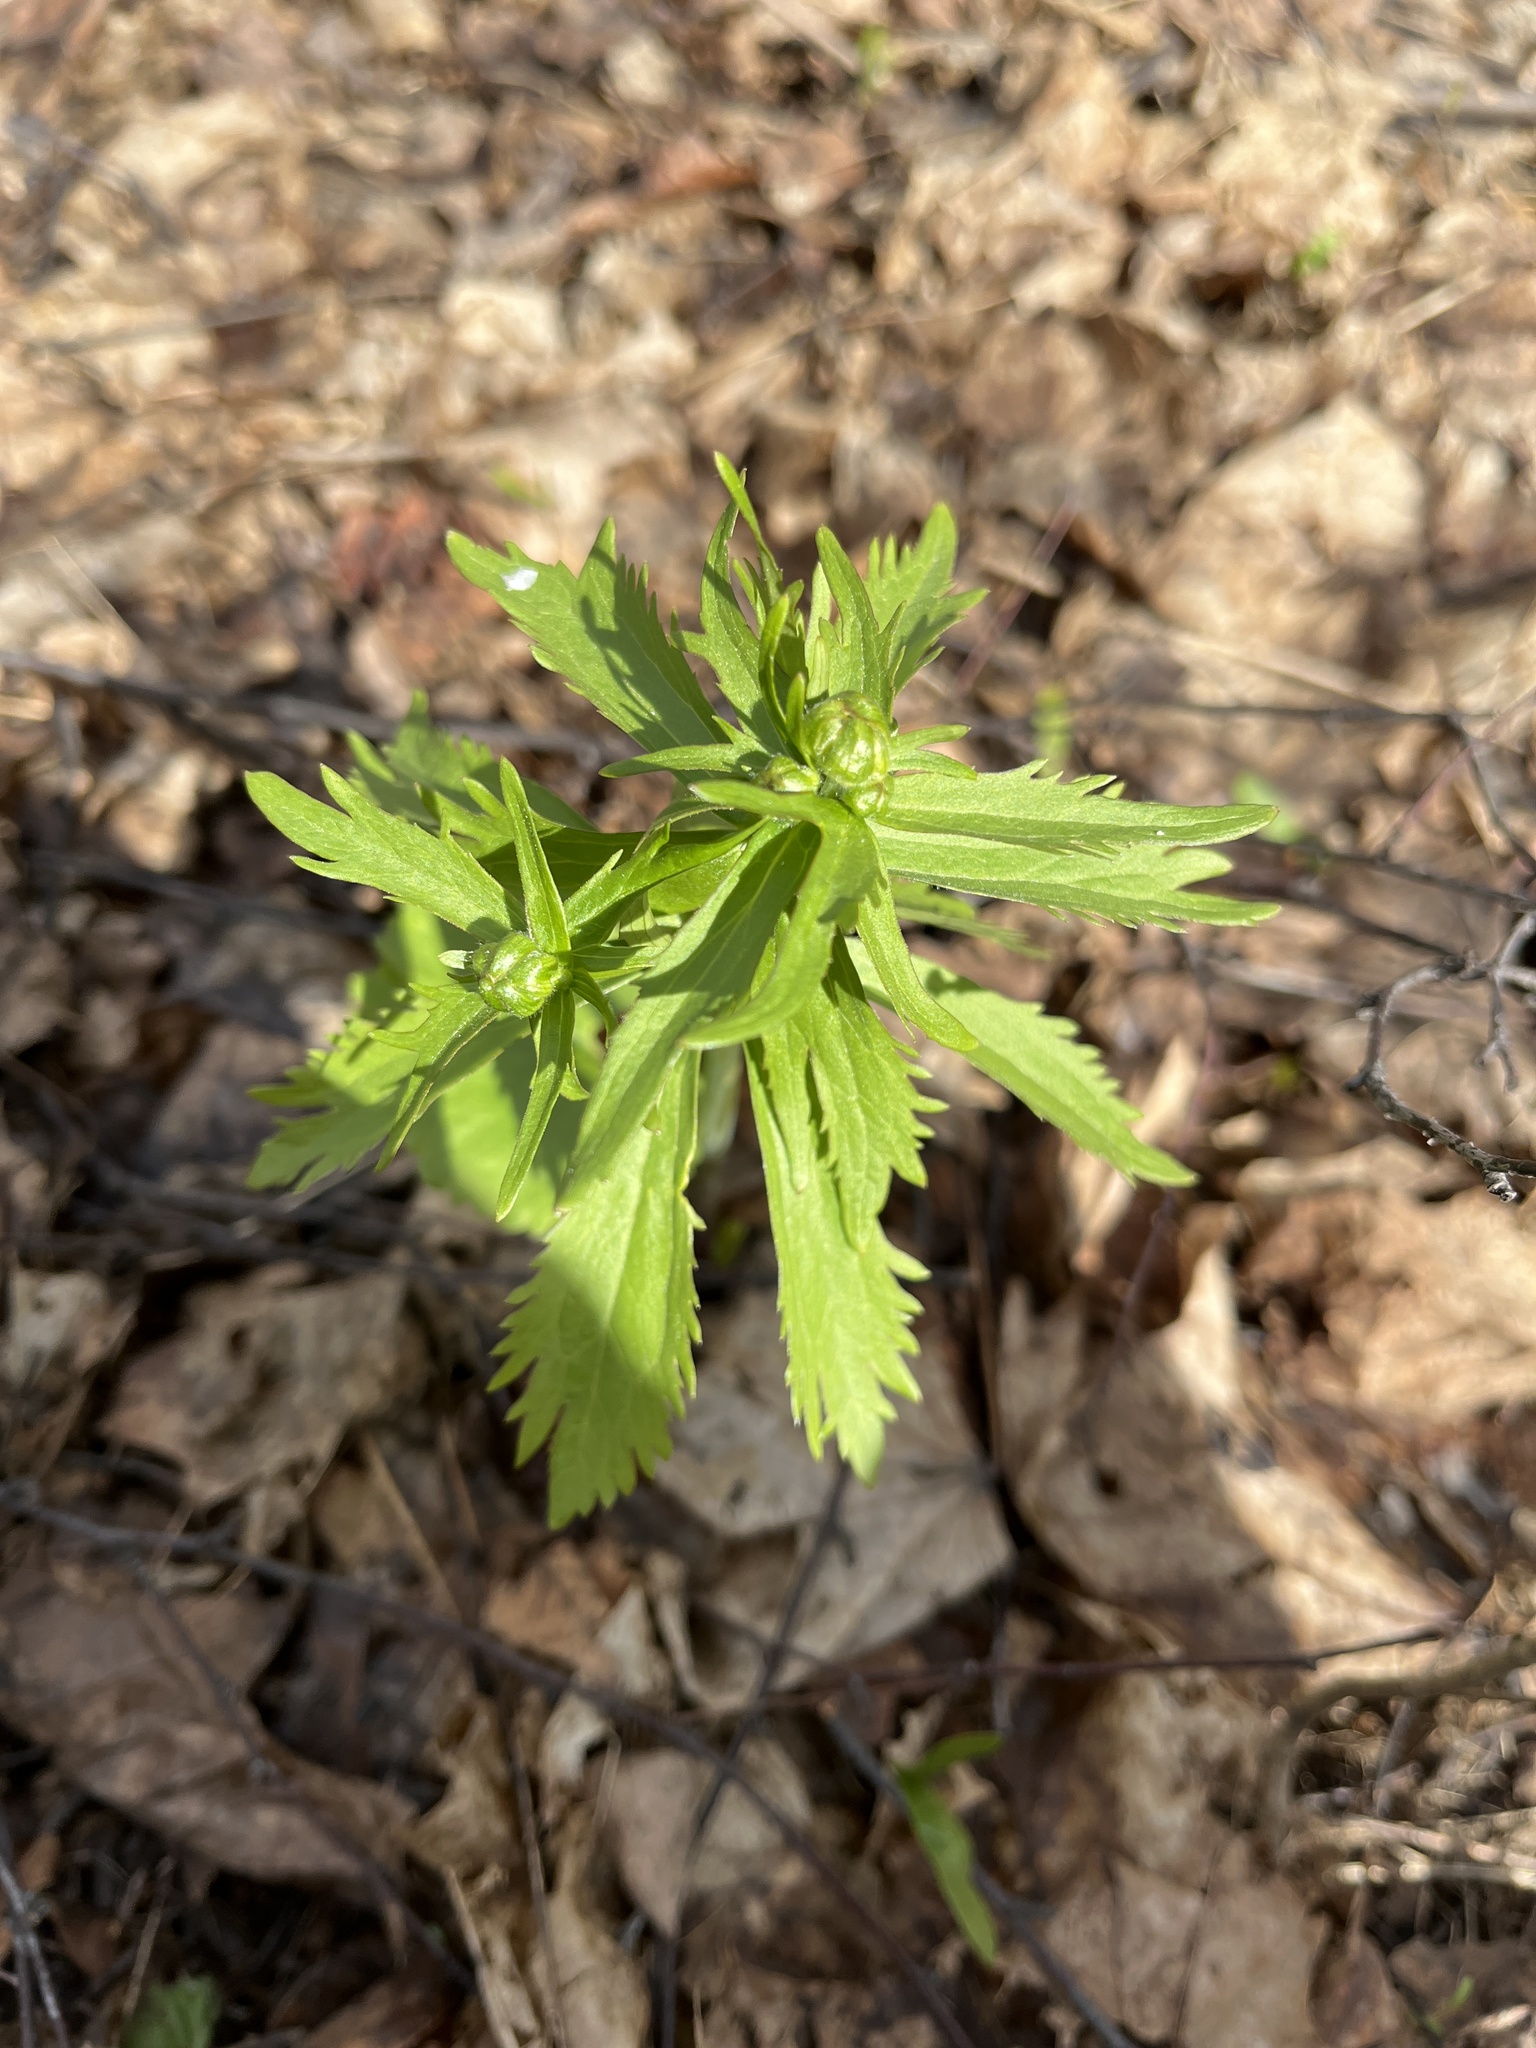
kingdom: Plantae
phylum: Tracheophyta
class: Magnoliopsida
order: Ranunculales
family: Ranunculaceae
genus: Ranunculus
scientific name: Ranunculus cassubicus
